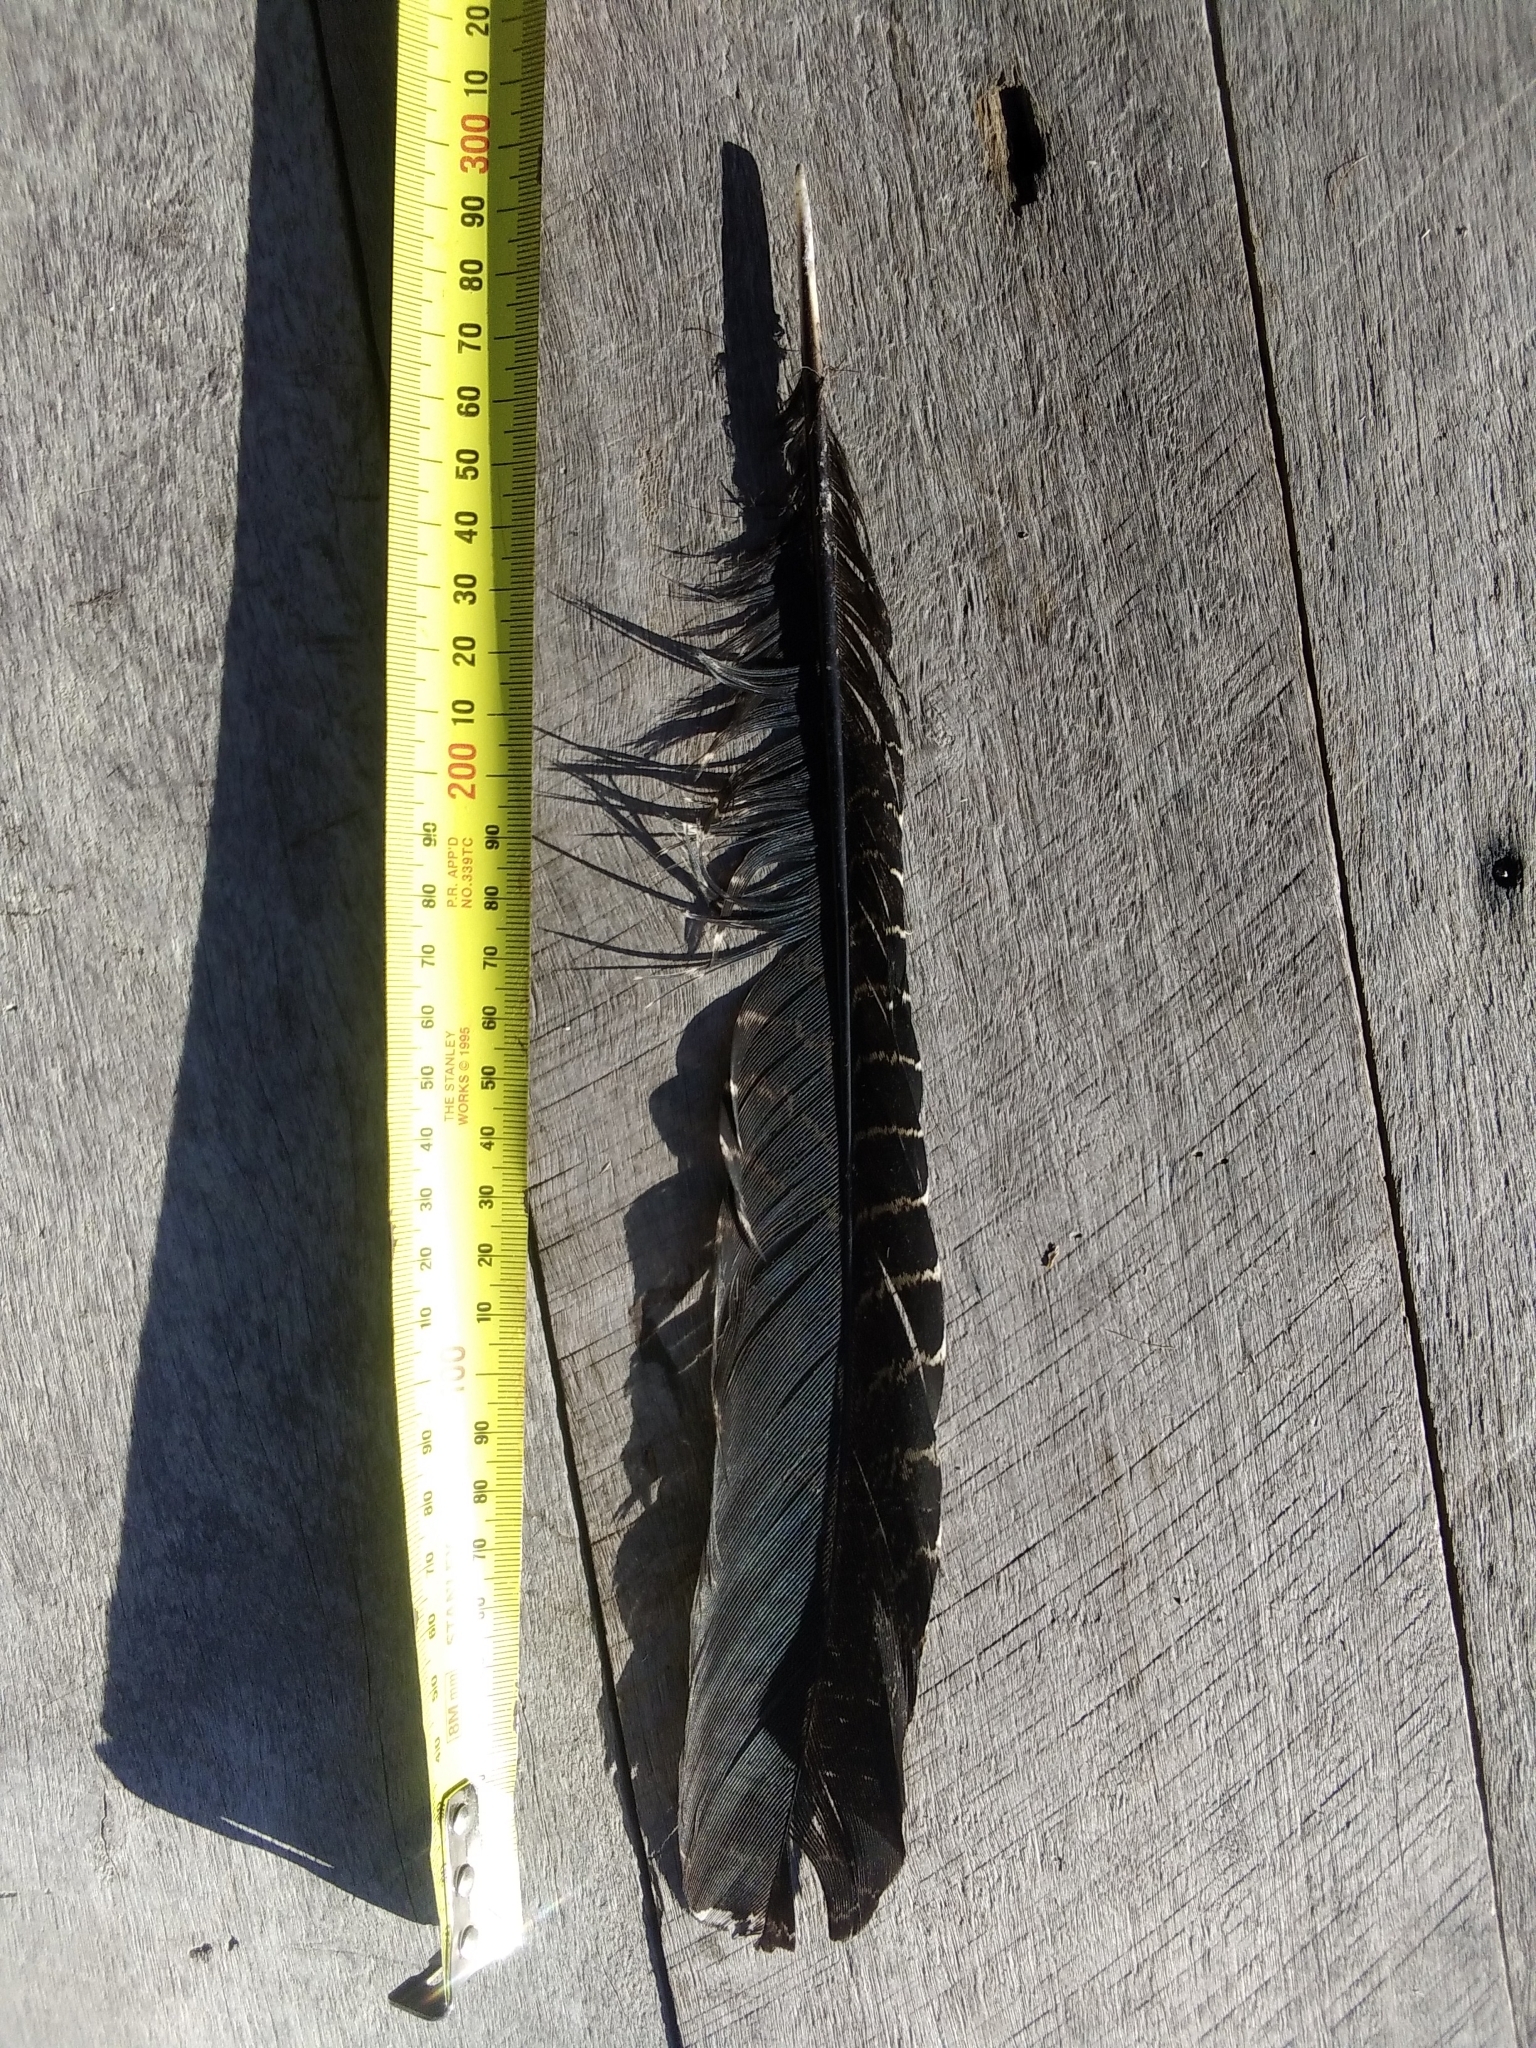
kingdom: Animalia
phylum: Chordata
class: Aves
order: Cuculiformes
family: Cuculidae
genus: Centropus
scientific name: Centropus phasianinus
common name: Pheasant coucal
